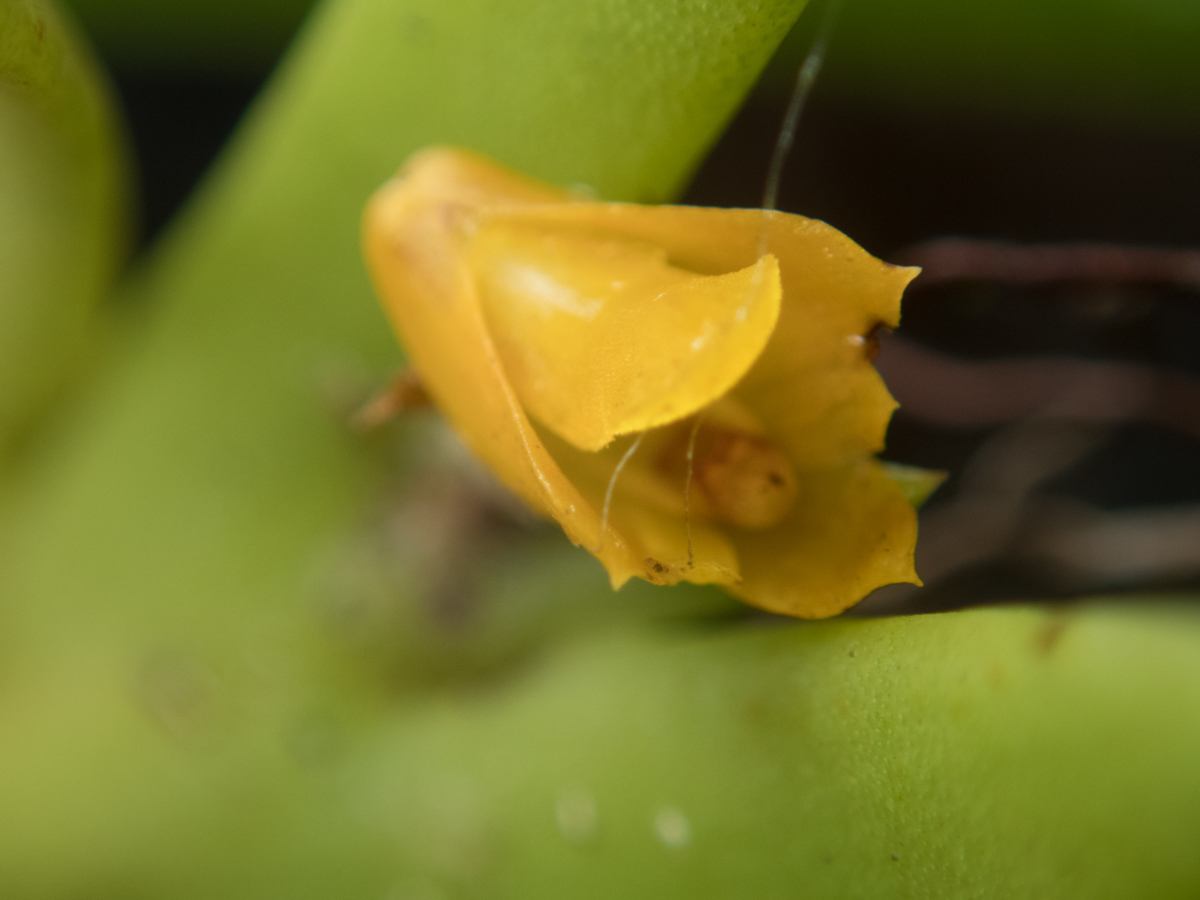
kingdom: Plantae
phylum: Tracheophyta
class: Liliopsida
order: Asparagales
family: Orchidaceae
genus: Oxystophyllum
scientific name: Oxystophyllum carnosum
